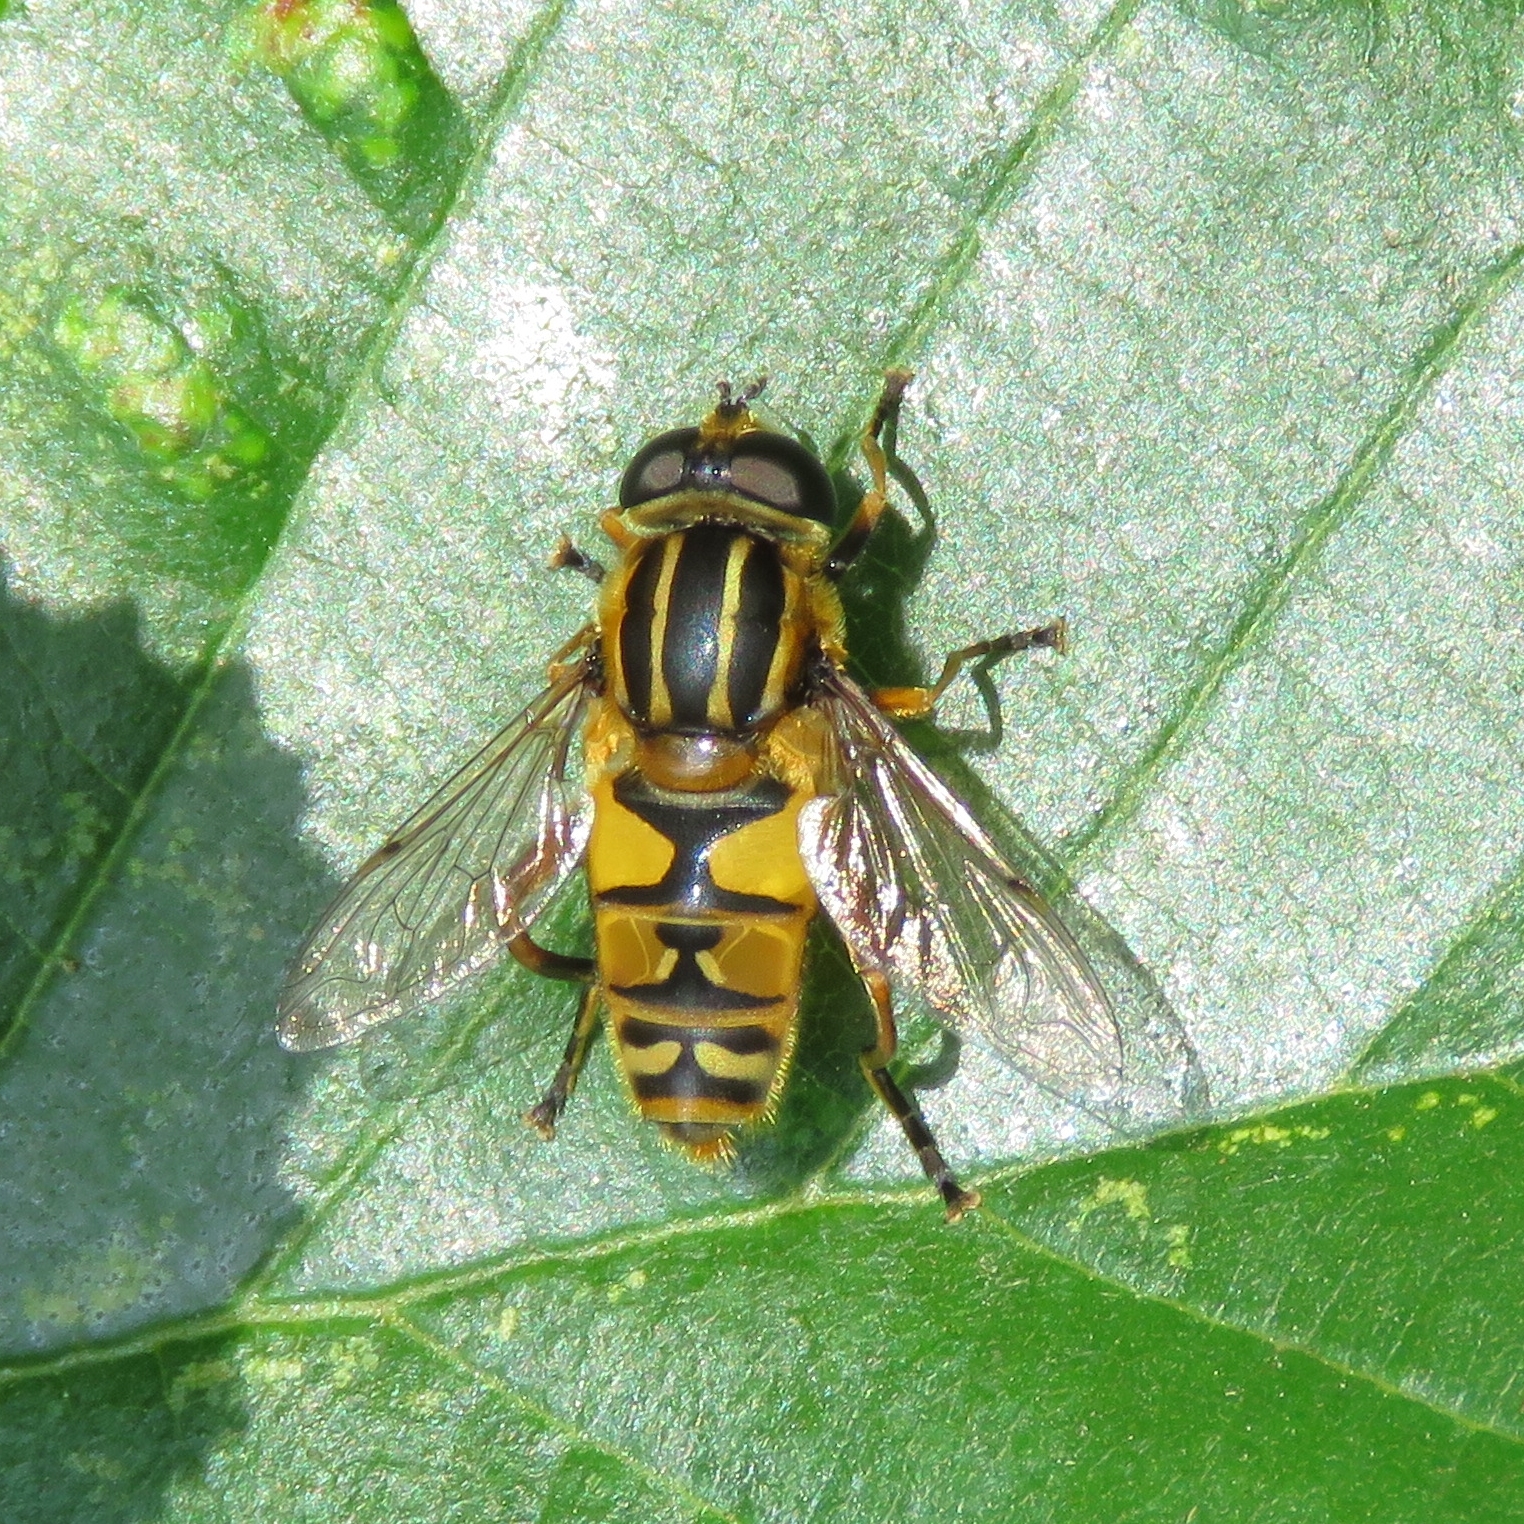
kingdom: Animalia
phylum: Arthropoda
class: Insecta
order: Diptera
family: Syrphidae
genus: Helophilus
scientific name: Helophilus pendulus
